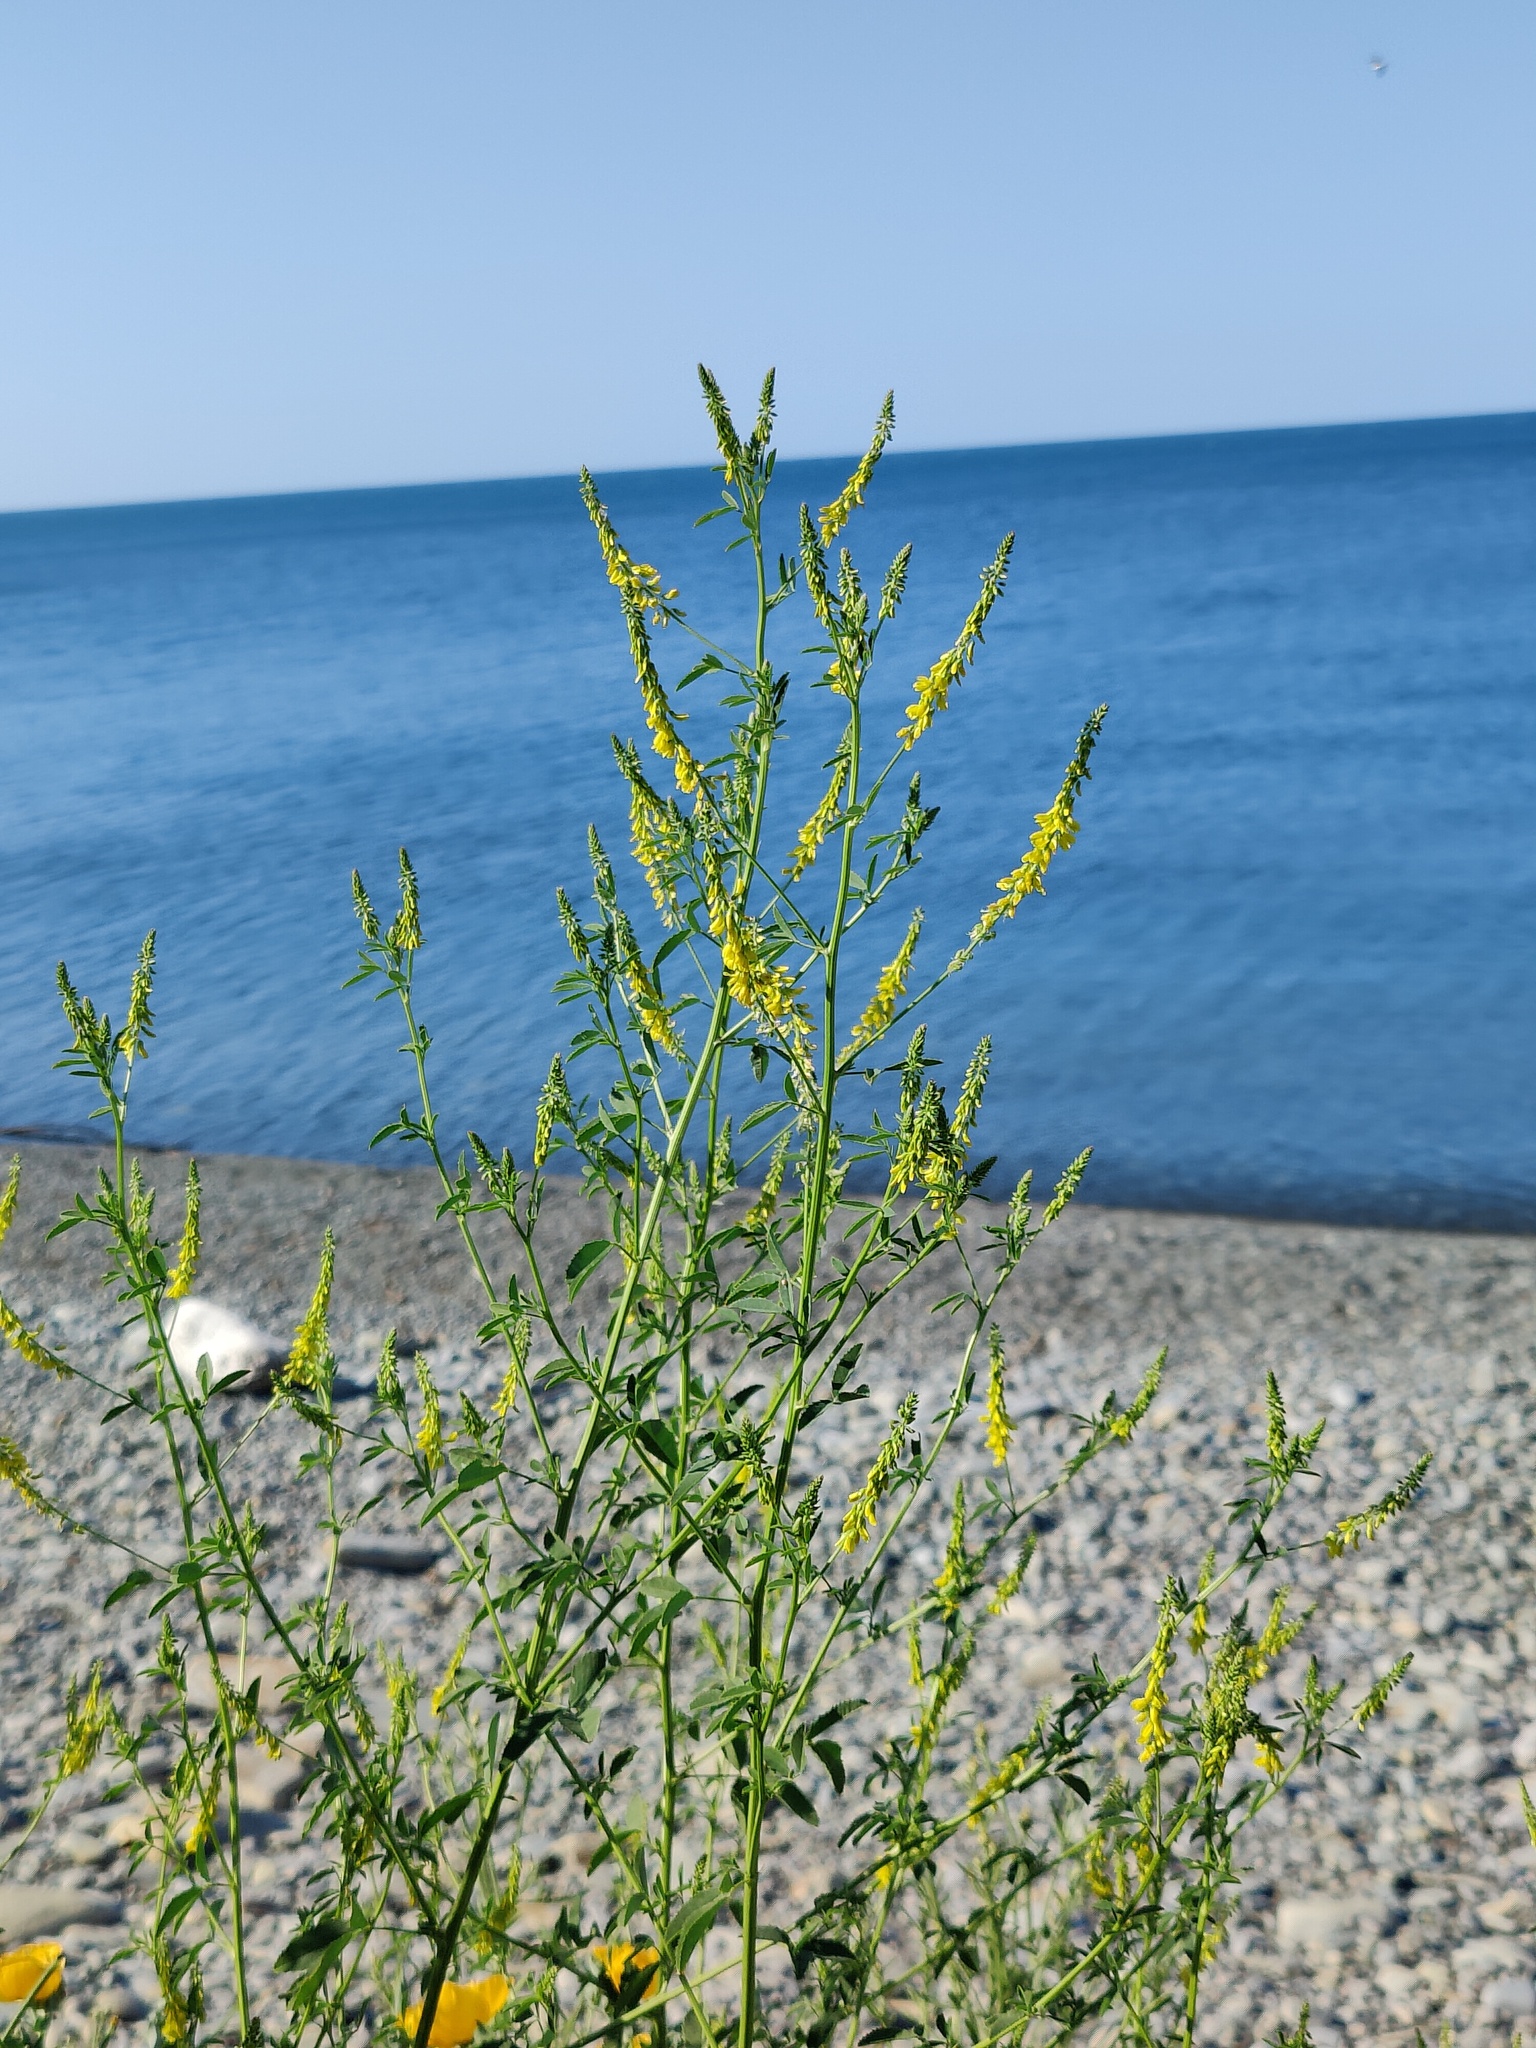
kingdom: Plantae
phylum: Tracheophyta
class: Magnoliopsida
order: Fabales
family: Fabaceae
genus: Melilotus
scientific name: Melilotus officinalis
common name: Sweetclover
